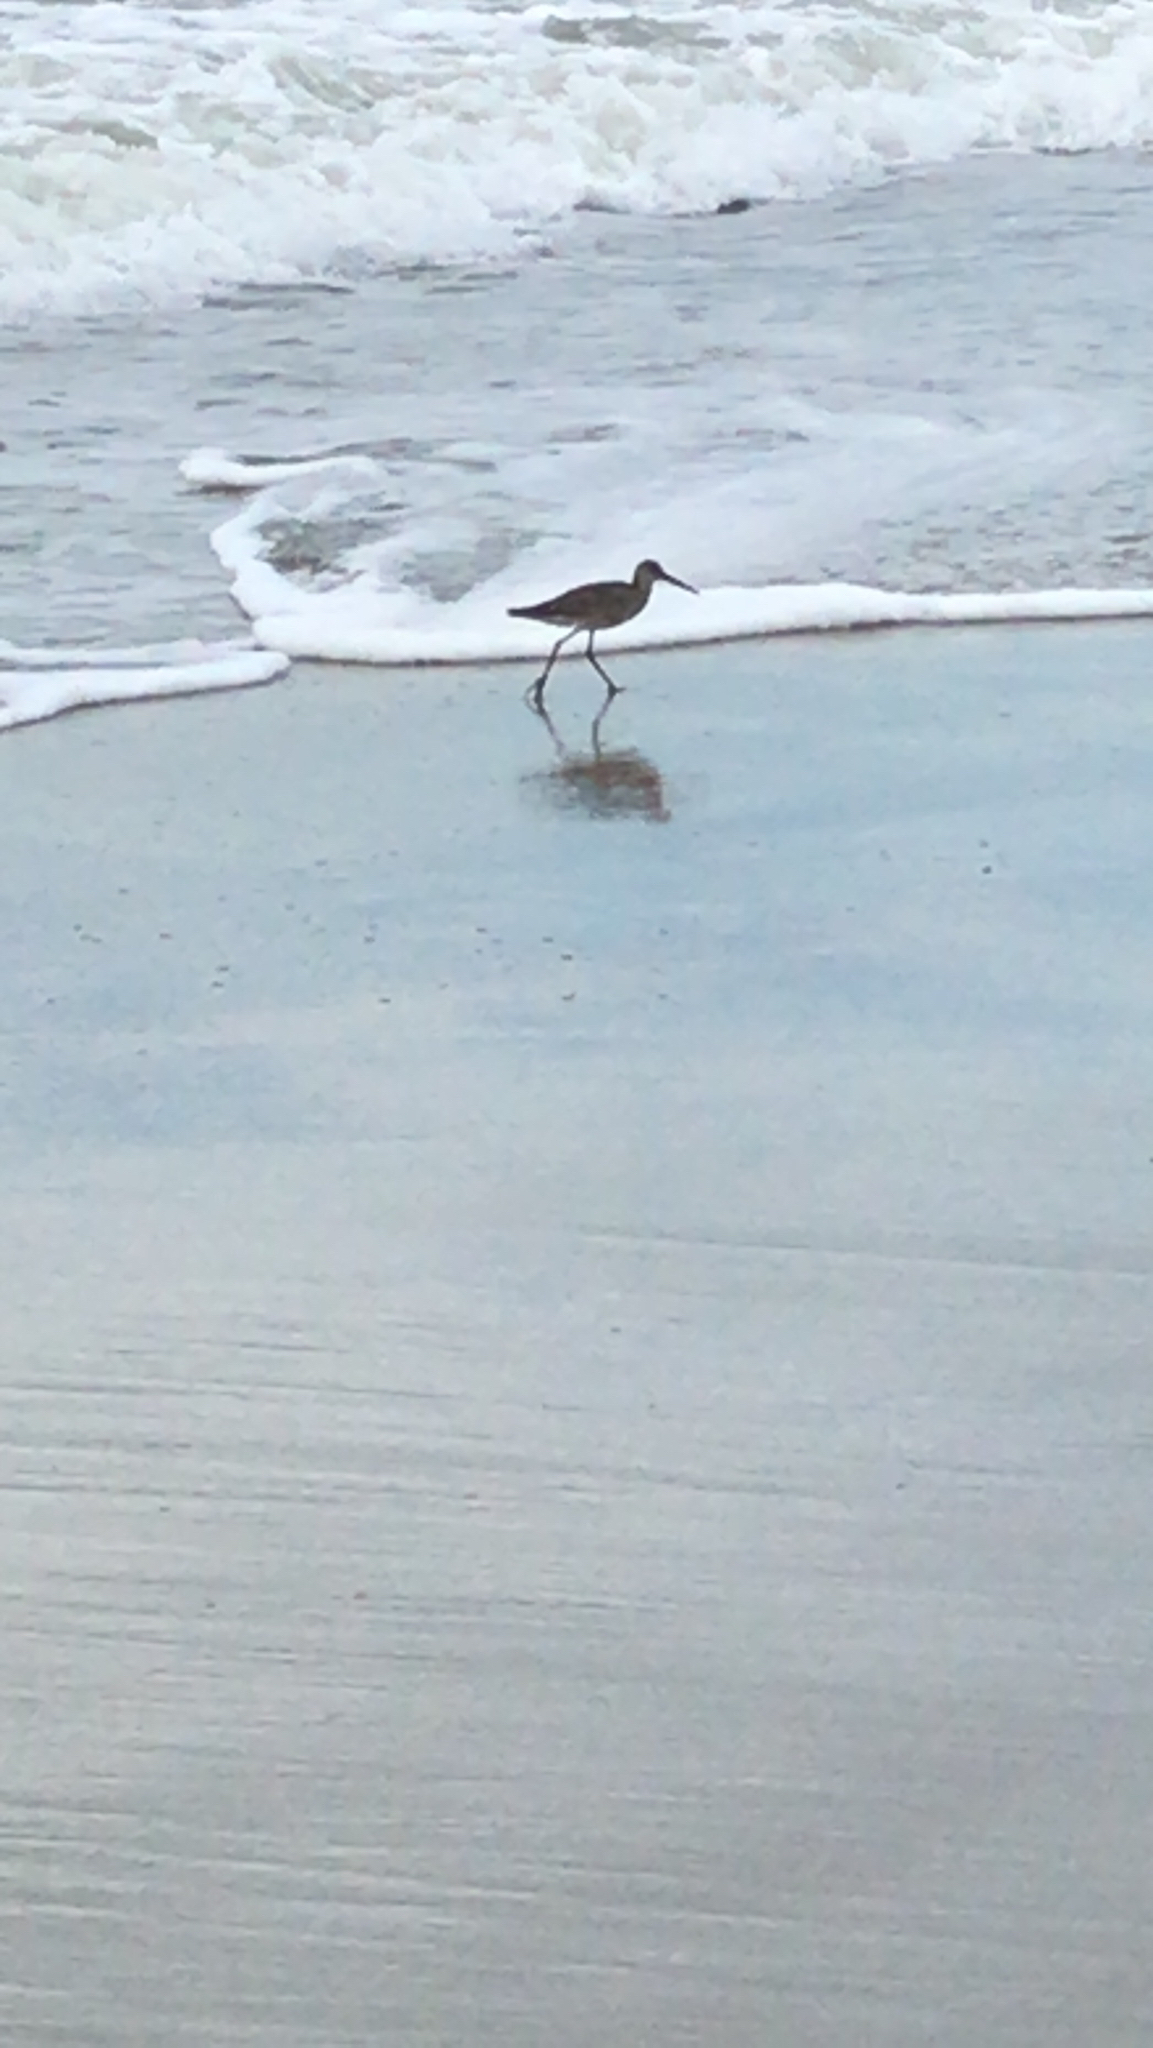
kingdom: Animalia
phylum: Chordata
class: Aves
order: Charadriiformes
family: Scolopacidae
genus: Tringa
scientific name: Tringa semipalmata
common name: Willet
